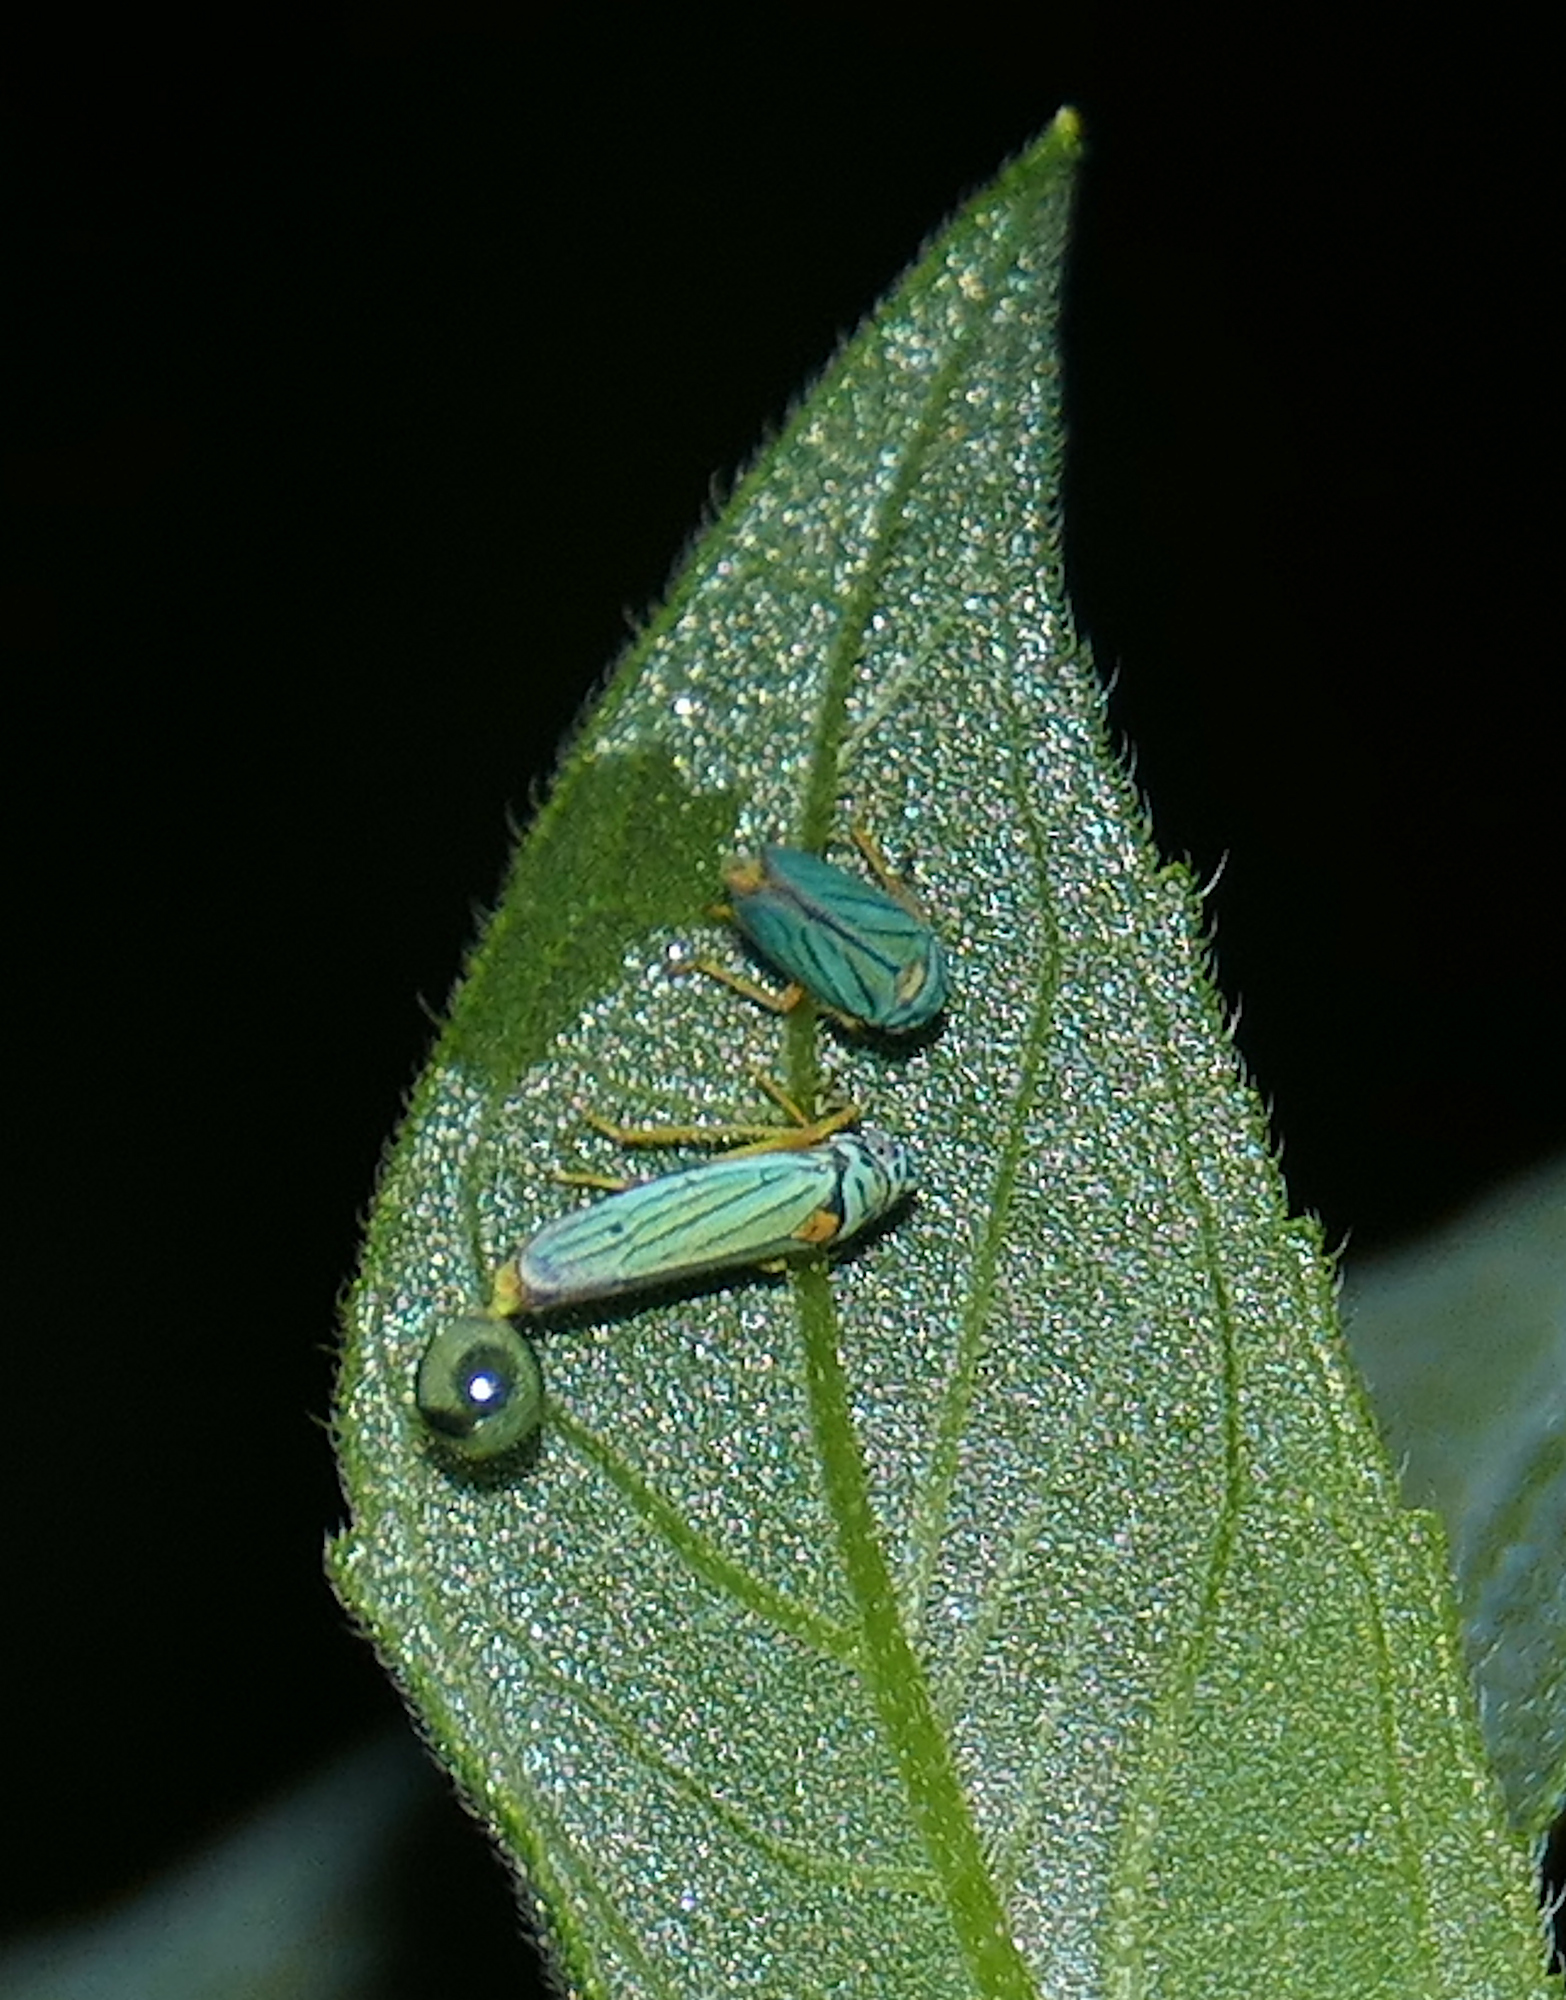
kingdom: Animalia
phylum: Arthropoda
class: Insecta
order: Hemiptera
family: Cicadellidae
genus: Graphocephala
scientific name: Graphocephala atropunctata
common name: Blue-green sharpshooter
